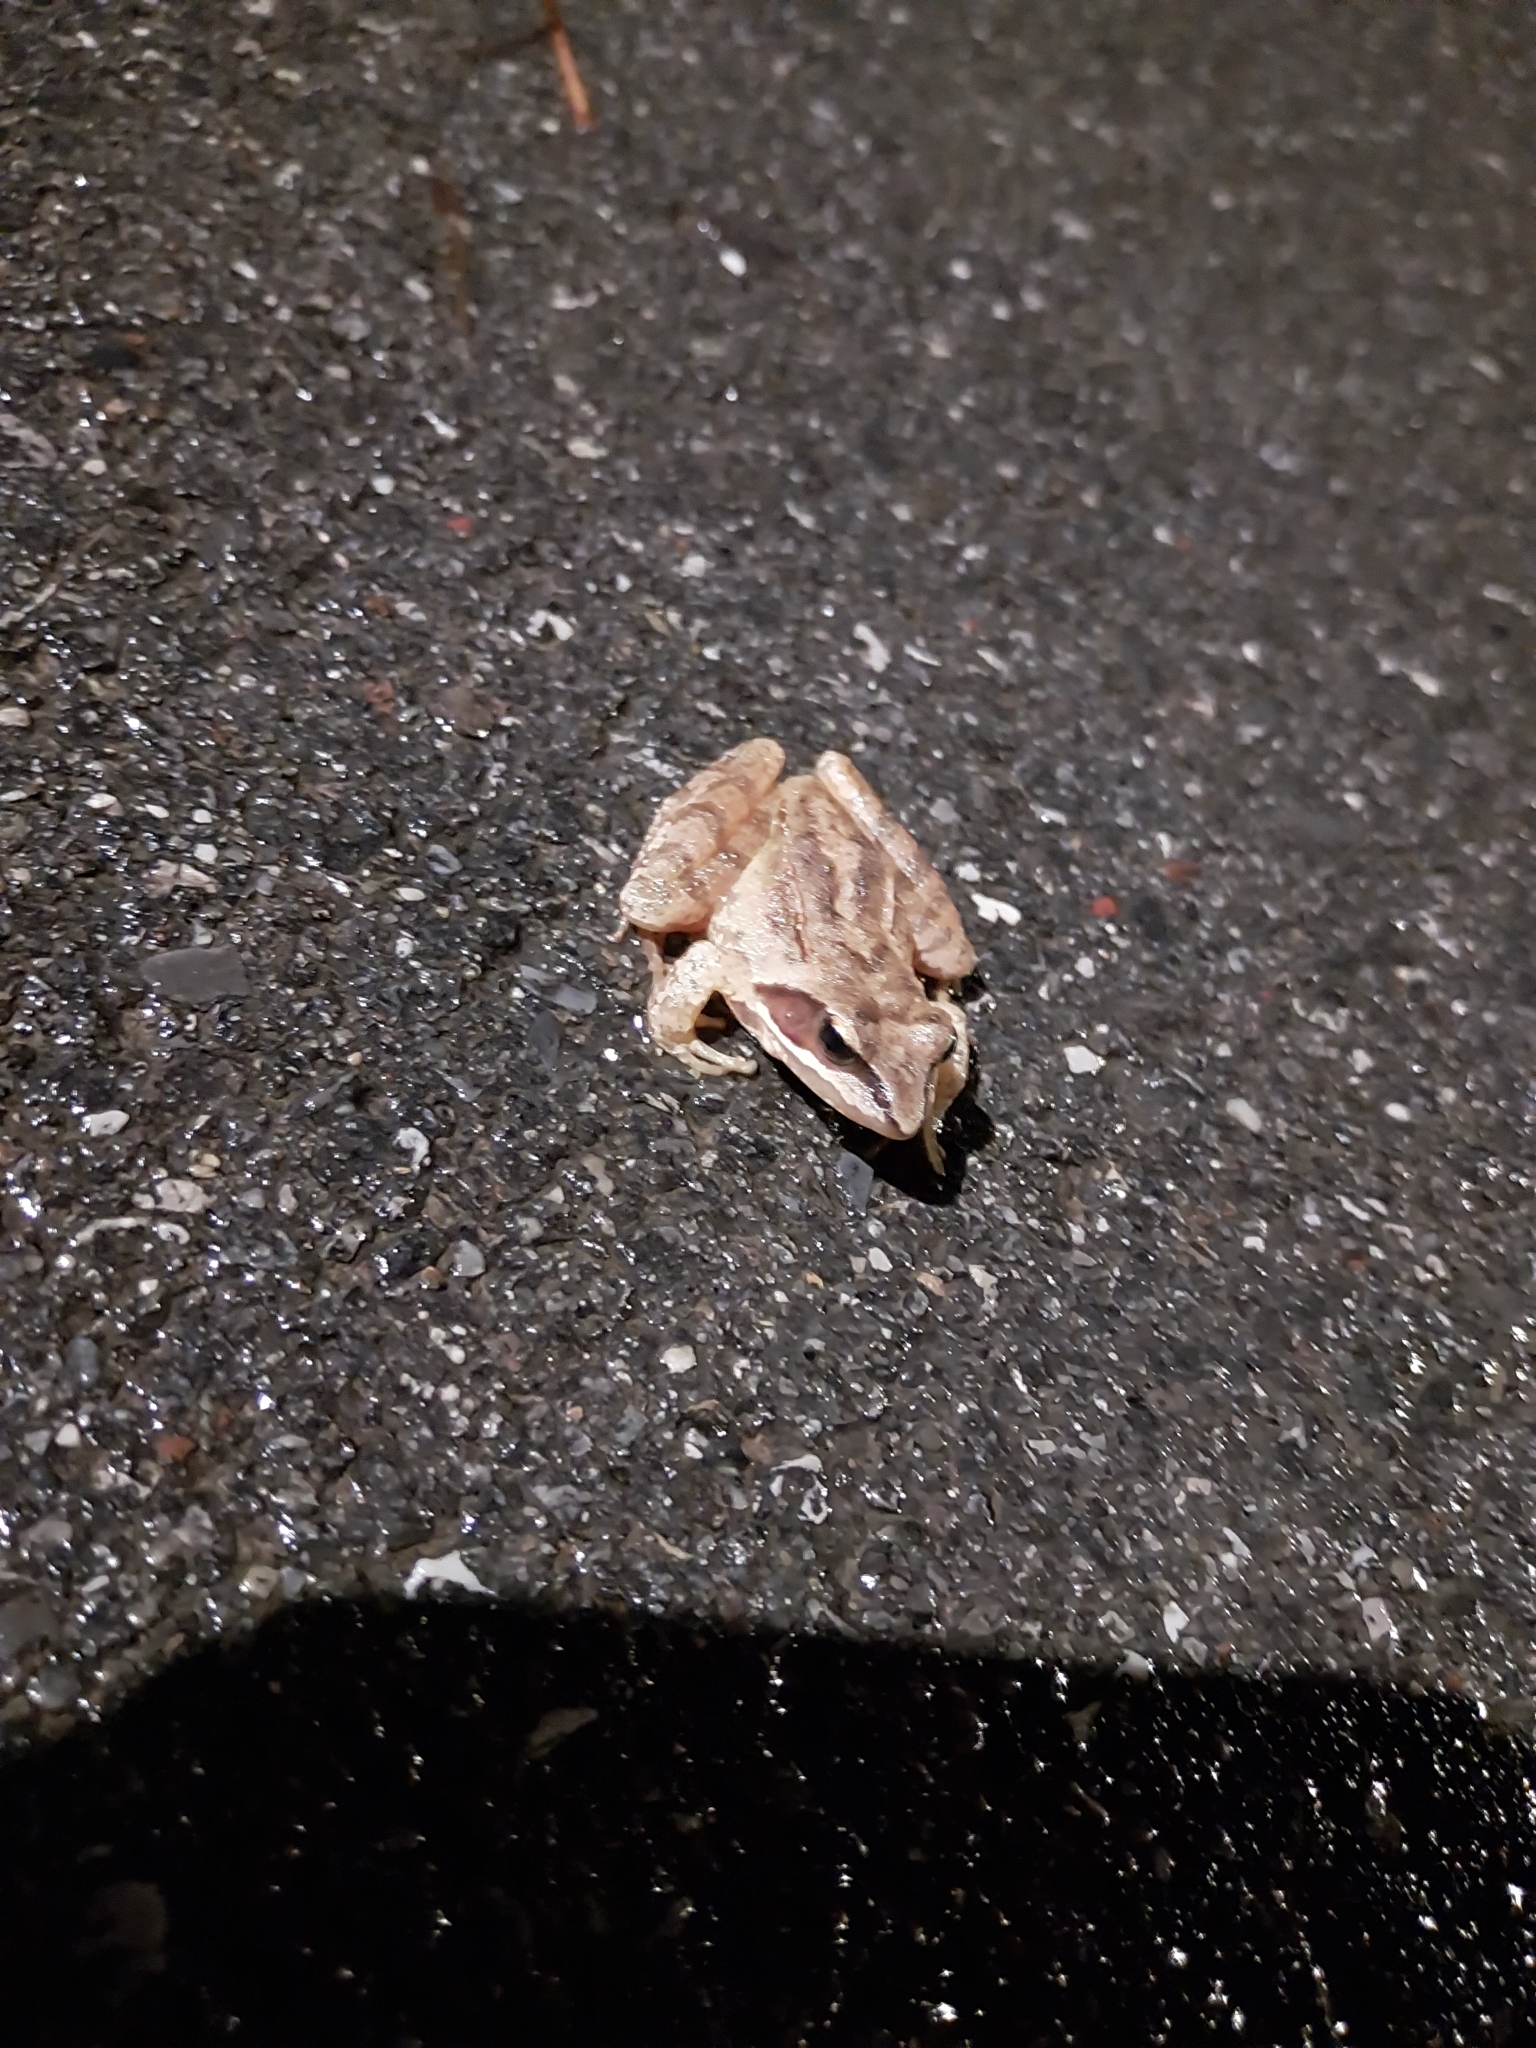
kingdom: Animalia
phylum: Chordata
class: Amphibia
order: Anura
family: Ranidae
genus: Rana
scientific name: Rana dalmatina
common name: Agile frog
